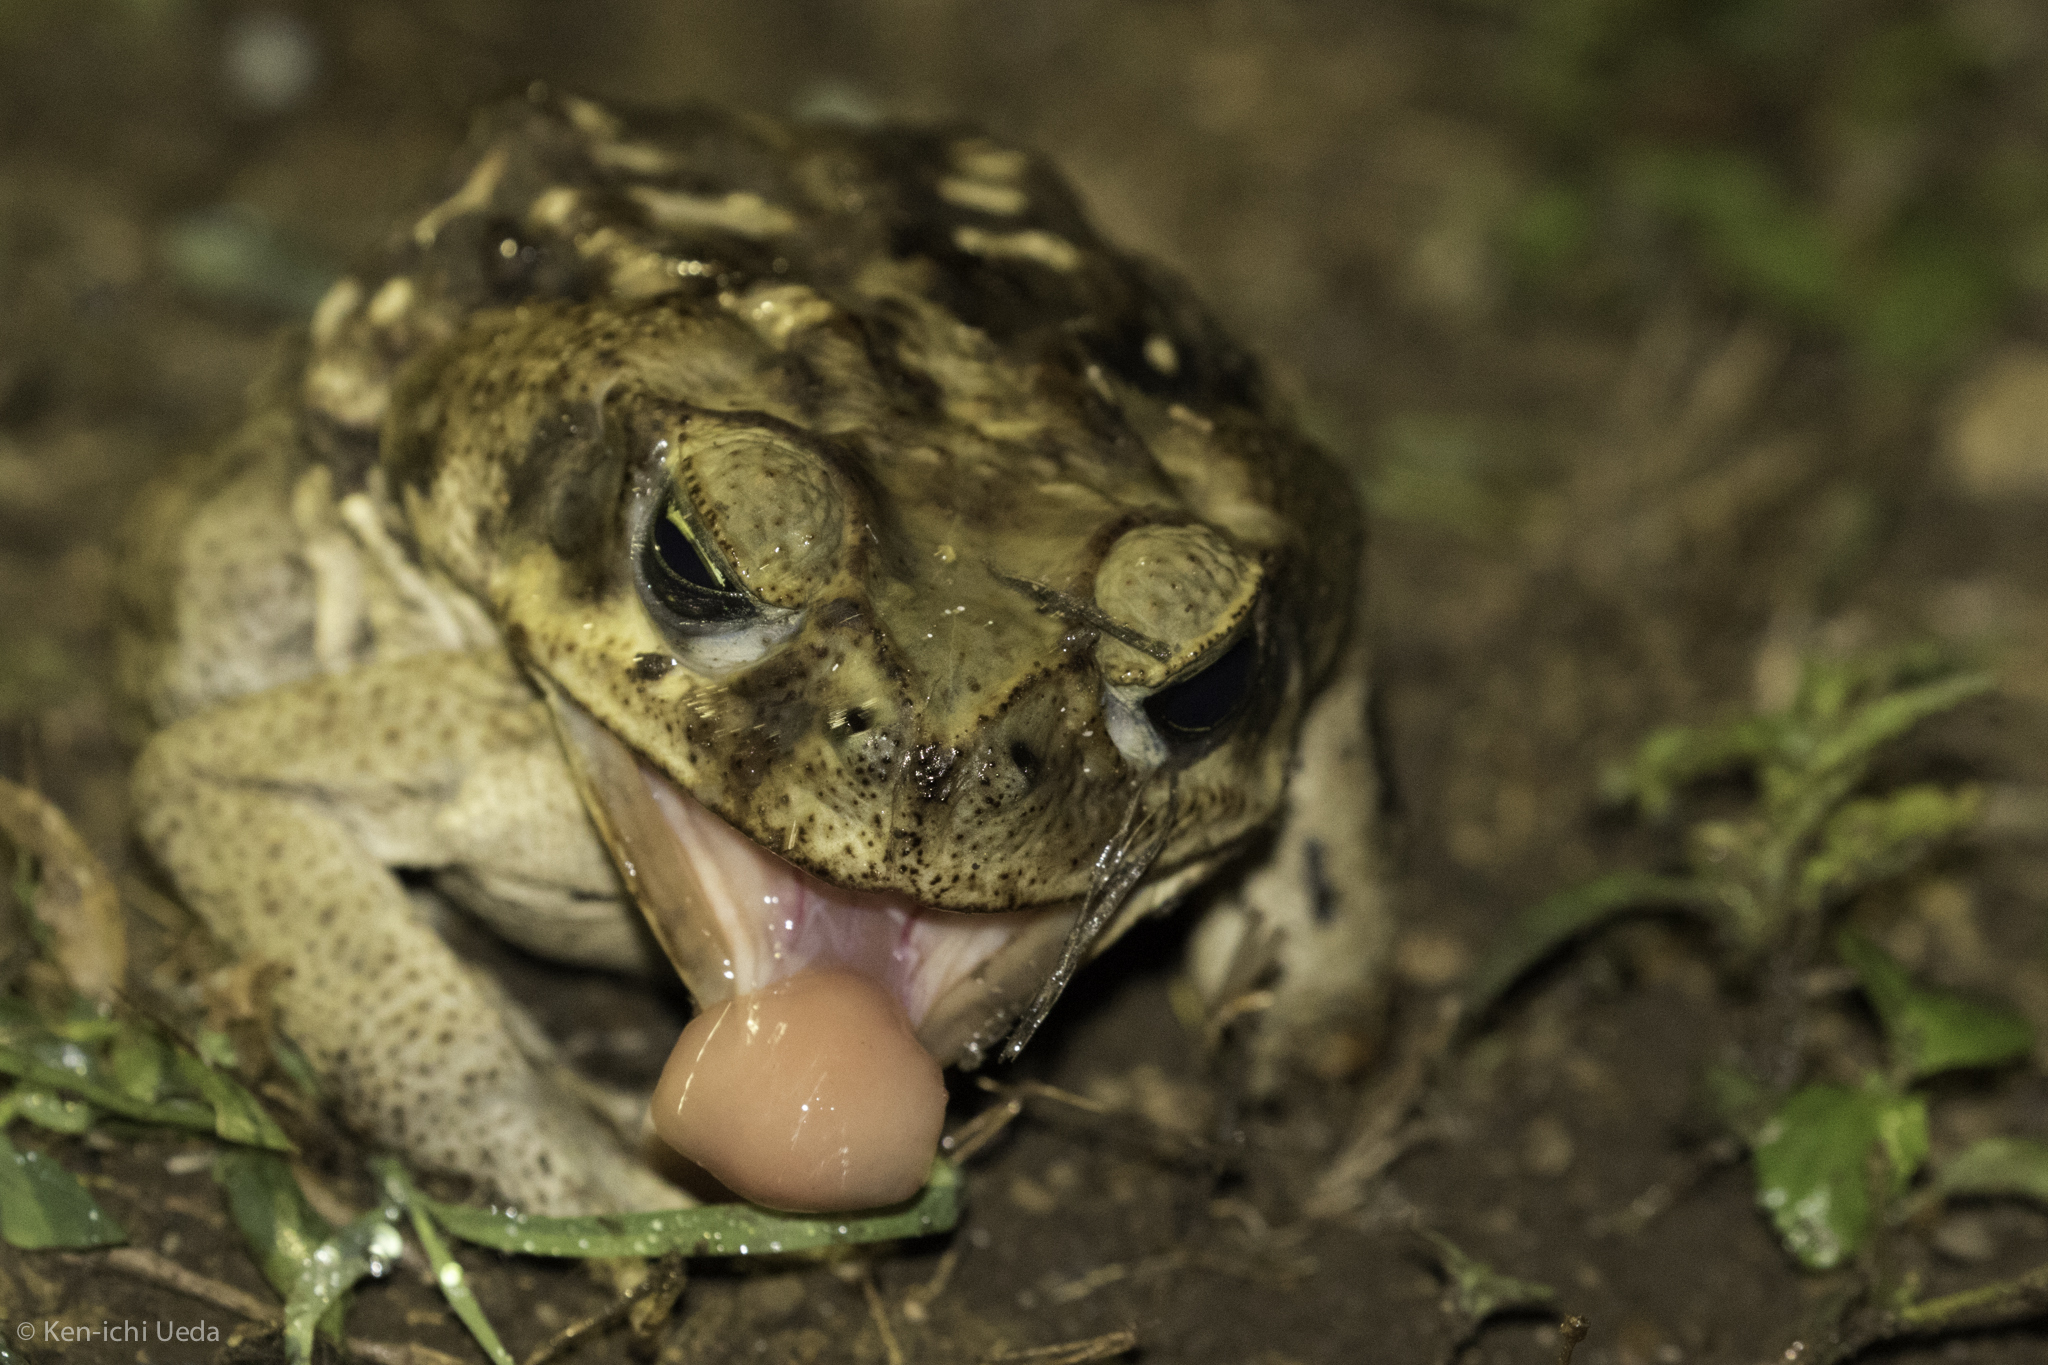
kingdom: Animalia
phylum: Chordata
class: Amphibia
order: Anura
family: Bufonidae
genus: Rhinella
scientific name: Rhinella horribilis
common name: Mesoamerican cane toad
